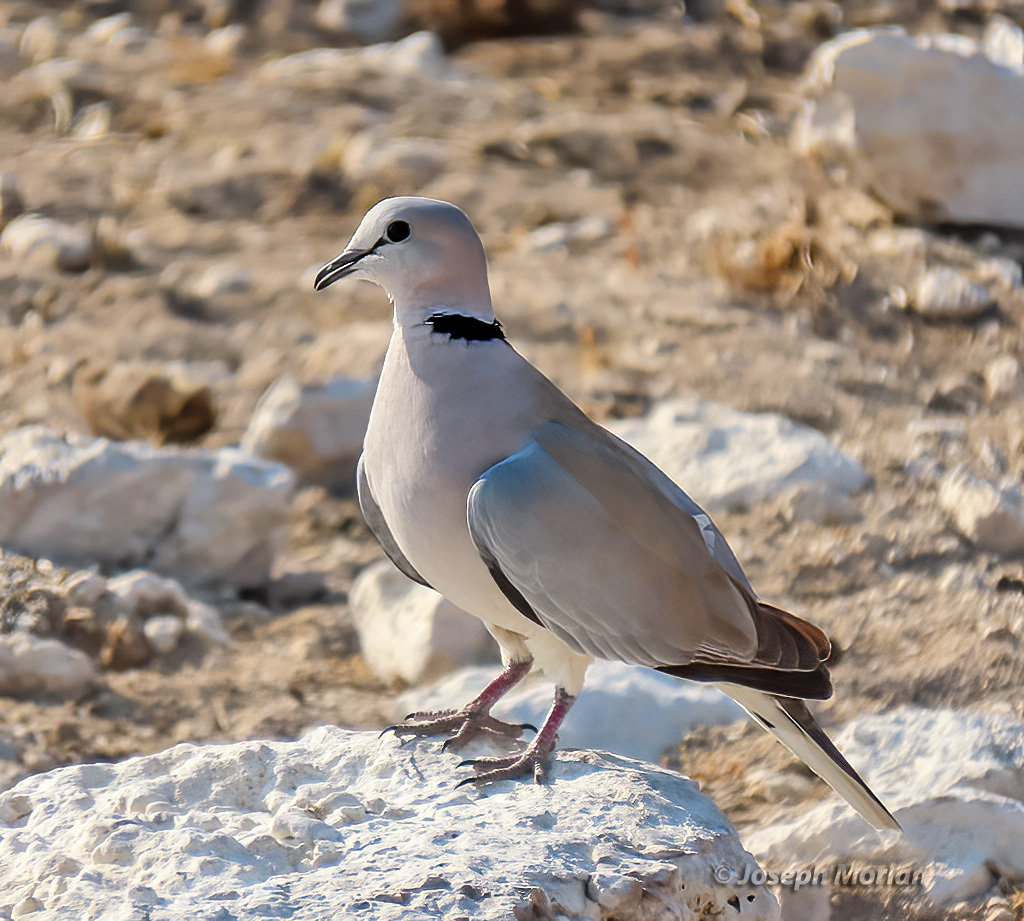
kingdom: Animalia
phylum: Chordata
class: Aves
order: Columbiformes
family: Columbidae
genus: Streptopelia
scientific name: Streptopelia capicola
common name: Ring-necked dove
